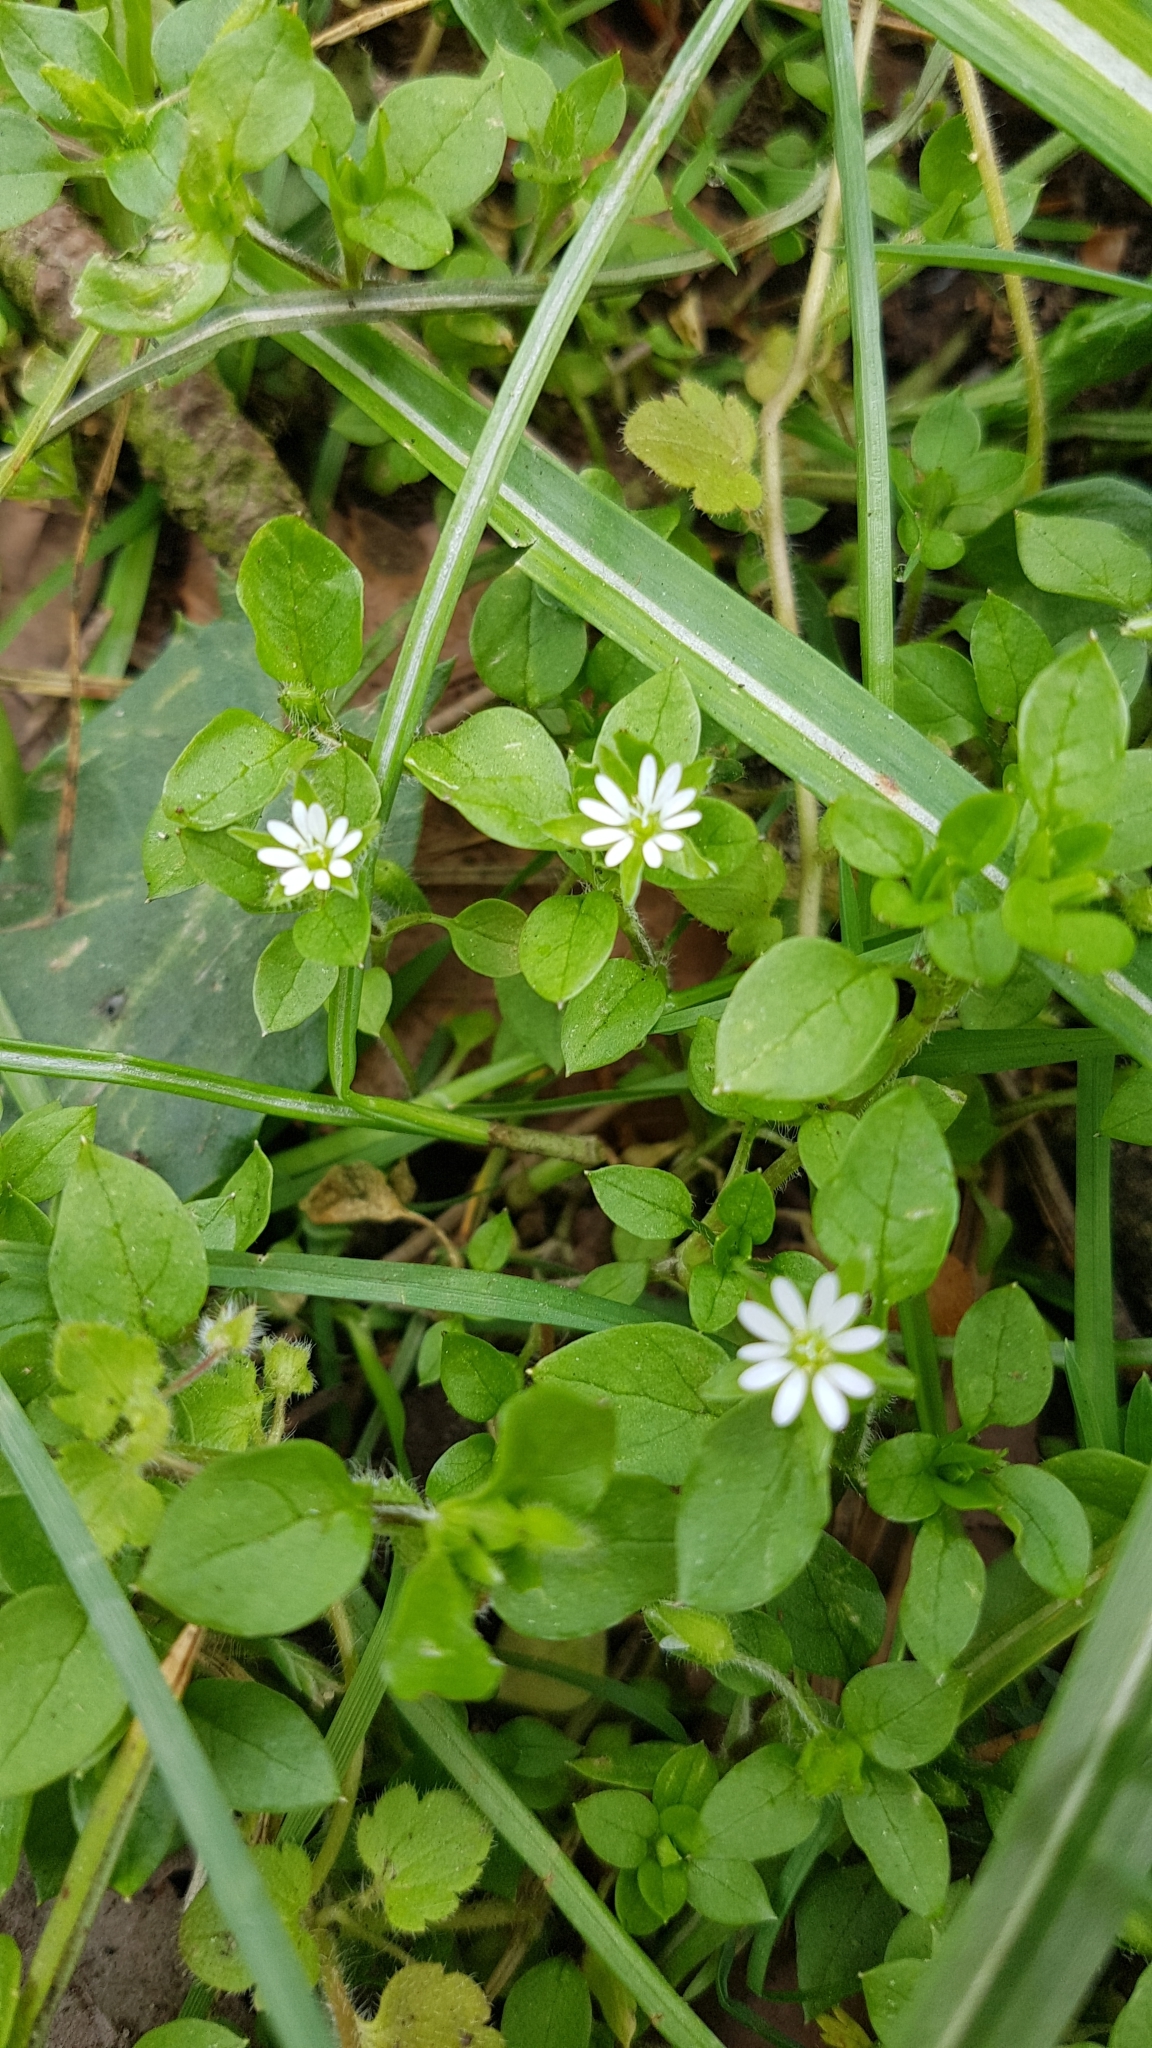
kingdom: Plantae
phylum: Tracheophyta
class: Magnoliopsida
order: Caryophyllales
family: Caryophyllaceae
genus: Stellaria
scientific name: Stellaria media
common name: Common chickweed
